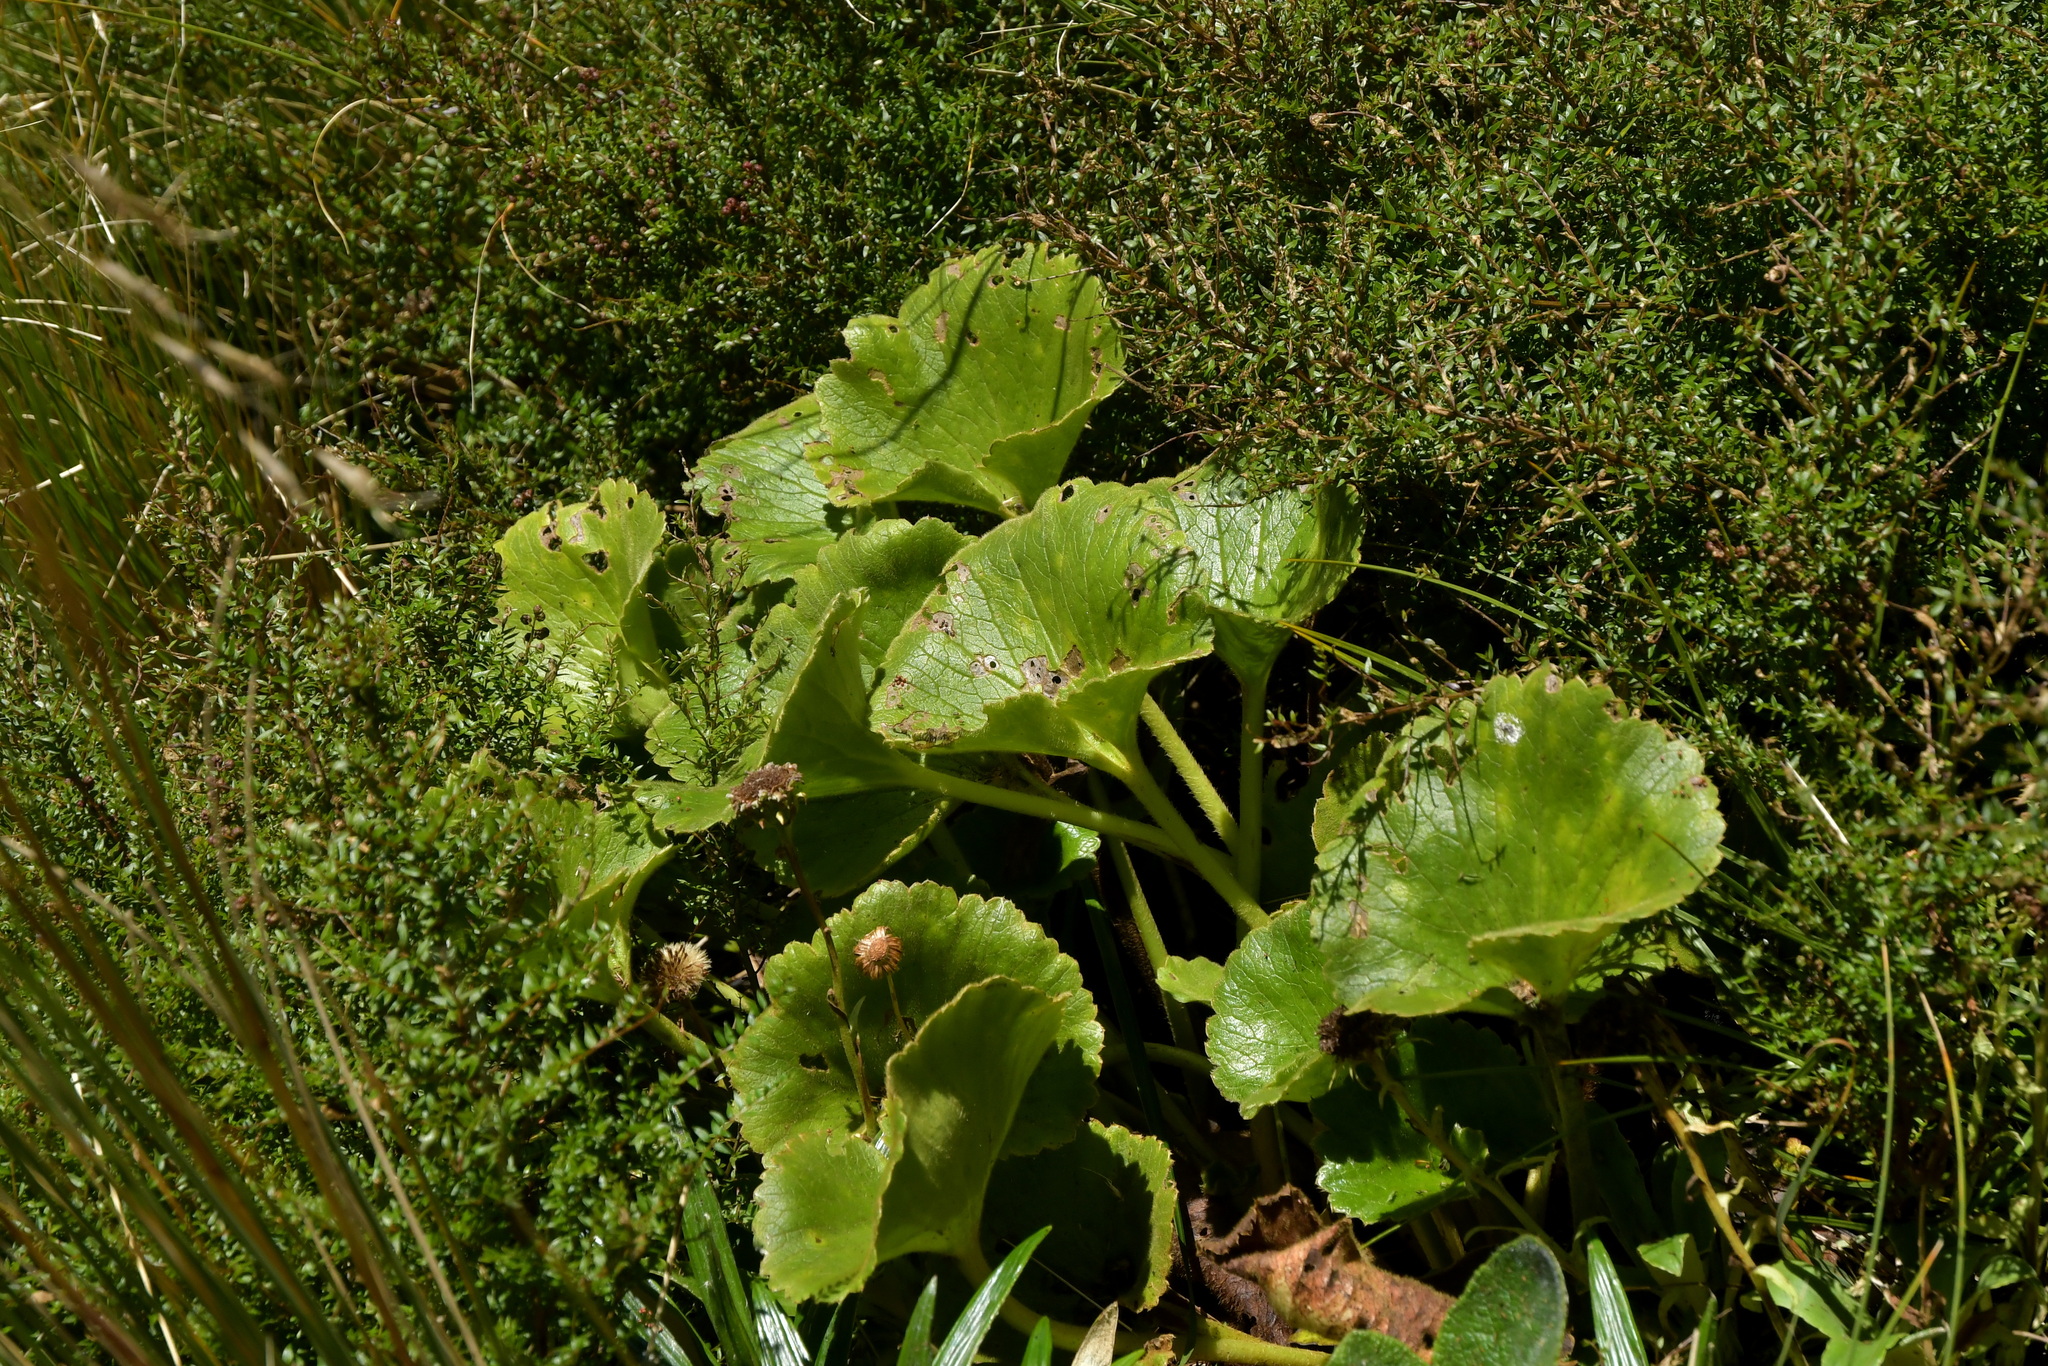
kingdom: Plantae
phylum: Tracheophyta
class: Magnoliopsida
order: Ranunculales
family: Ranunculaceae
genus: Ranunculus
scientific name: Ranunculus insignis
